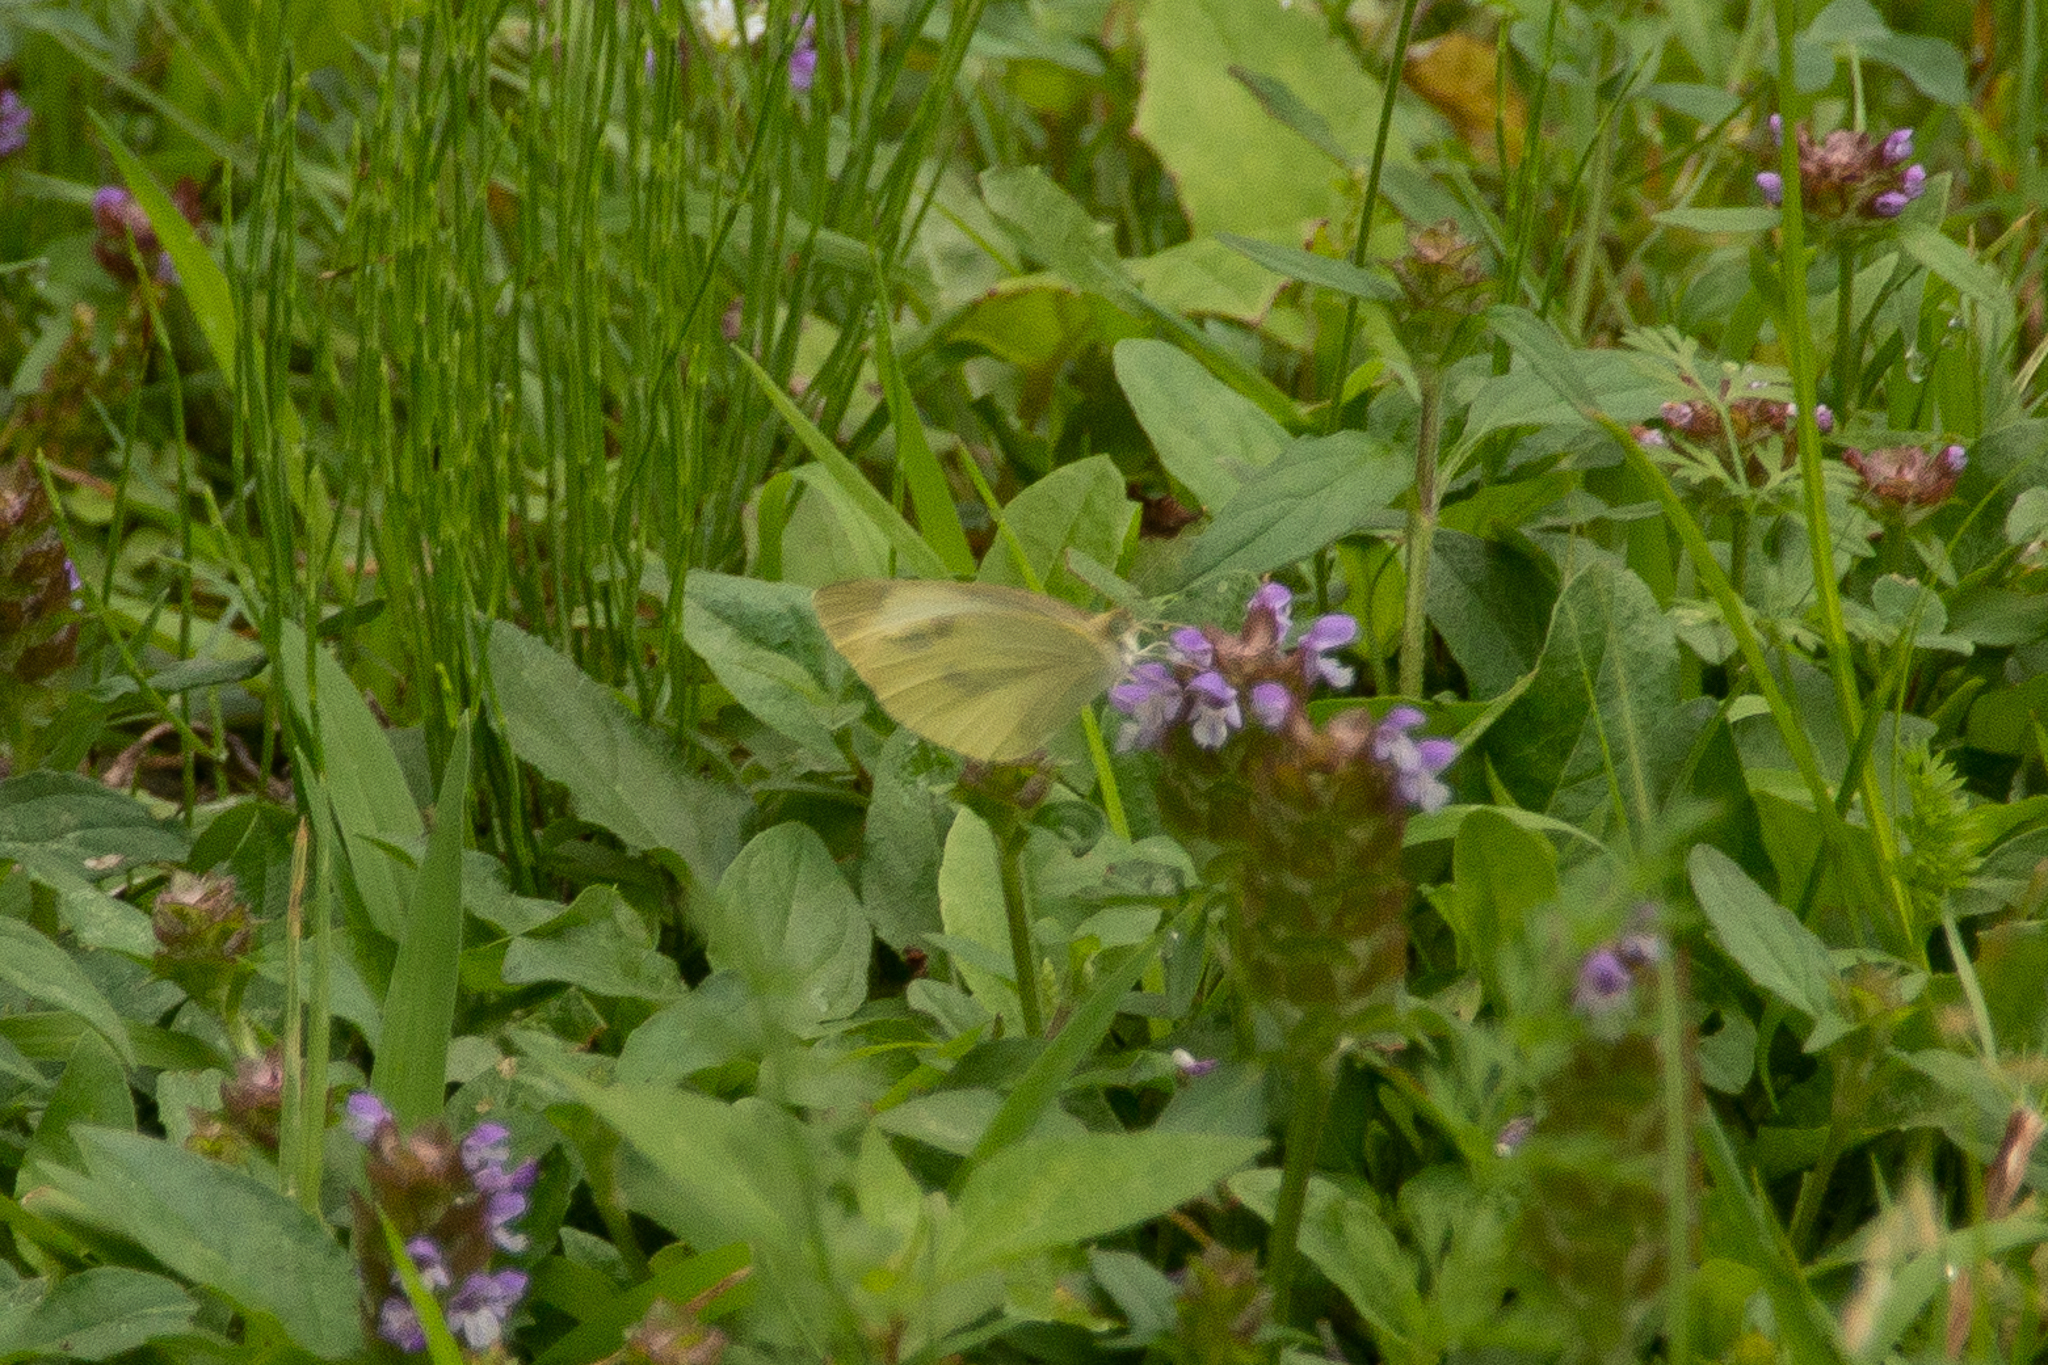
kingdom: Animalia
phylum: Arthropoda
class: Insecta
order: Lepidoptera
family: Pieridae
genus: Pieris
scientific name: Pieris rapae
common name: Small white
